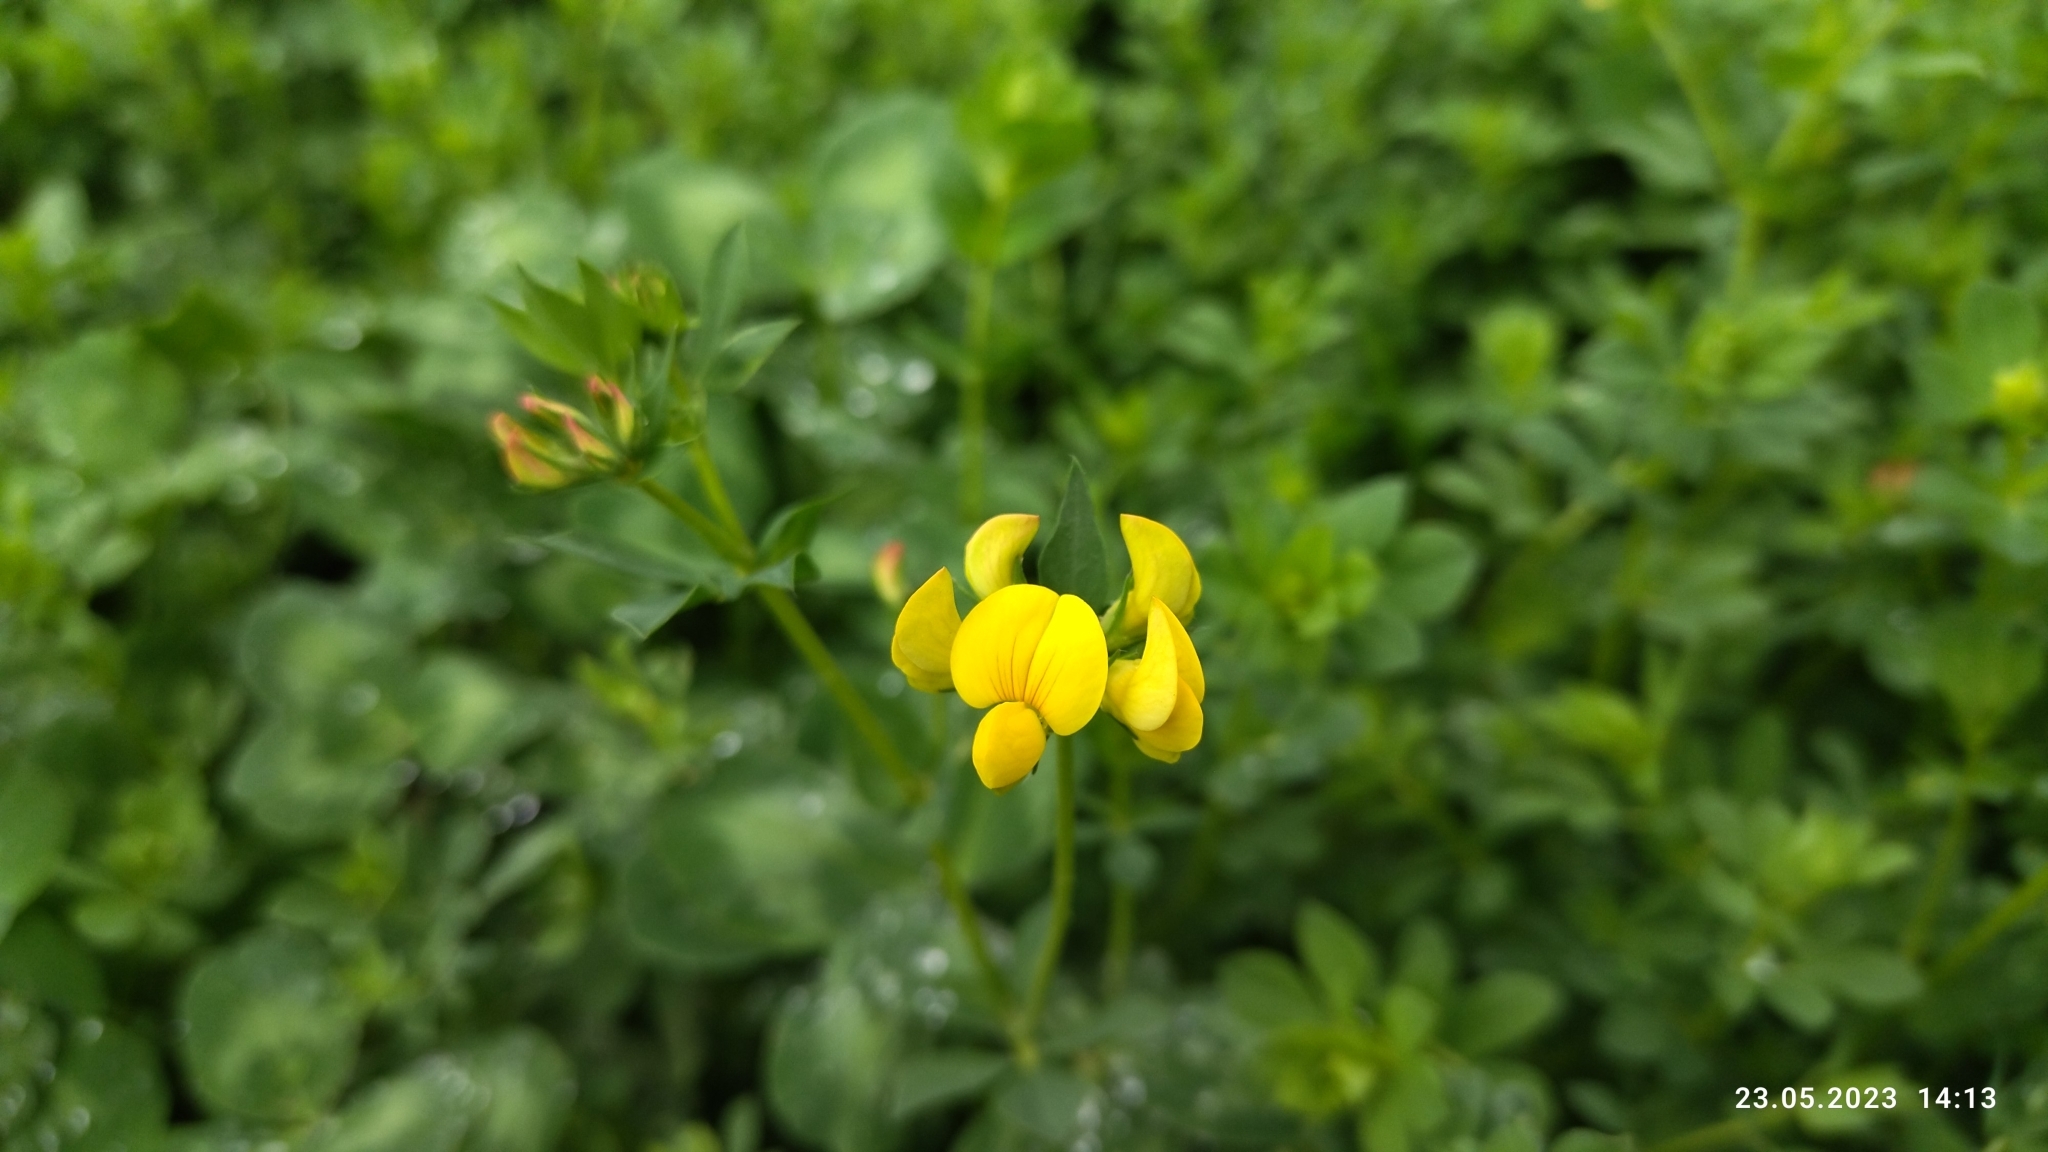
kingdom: Plantae
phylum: Tracheophyta
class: Magnoliopsida
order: Fabales
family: Fabaceae
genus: Lotus
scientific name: Lotus corniculatus
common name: Common bird's-foot-trefoil
